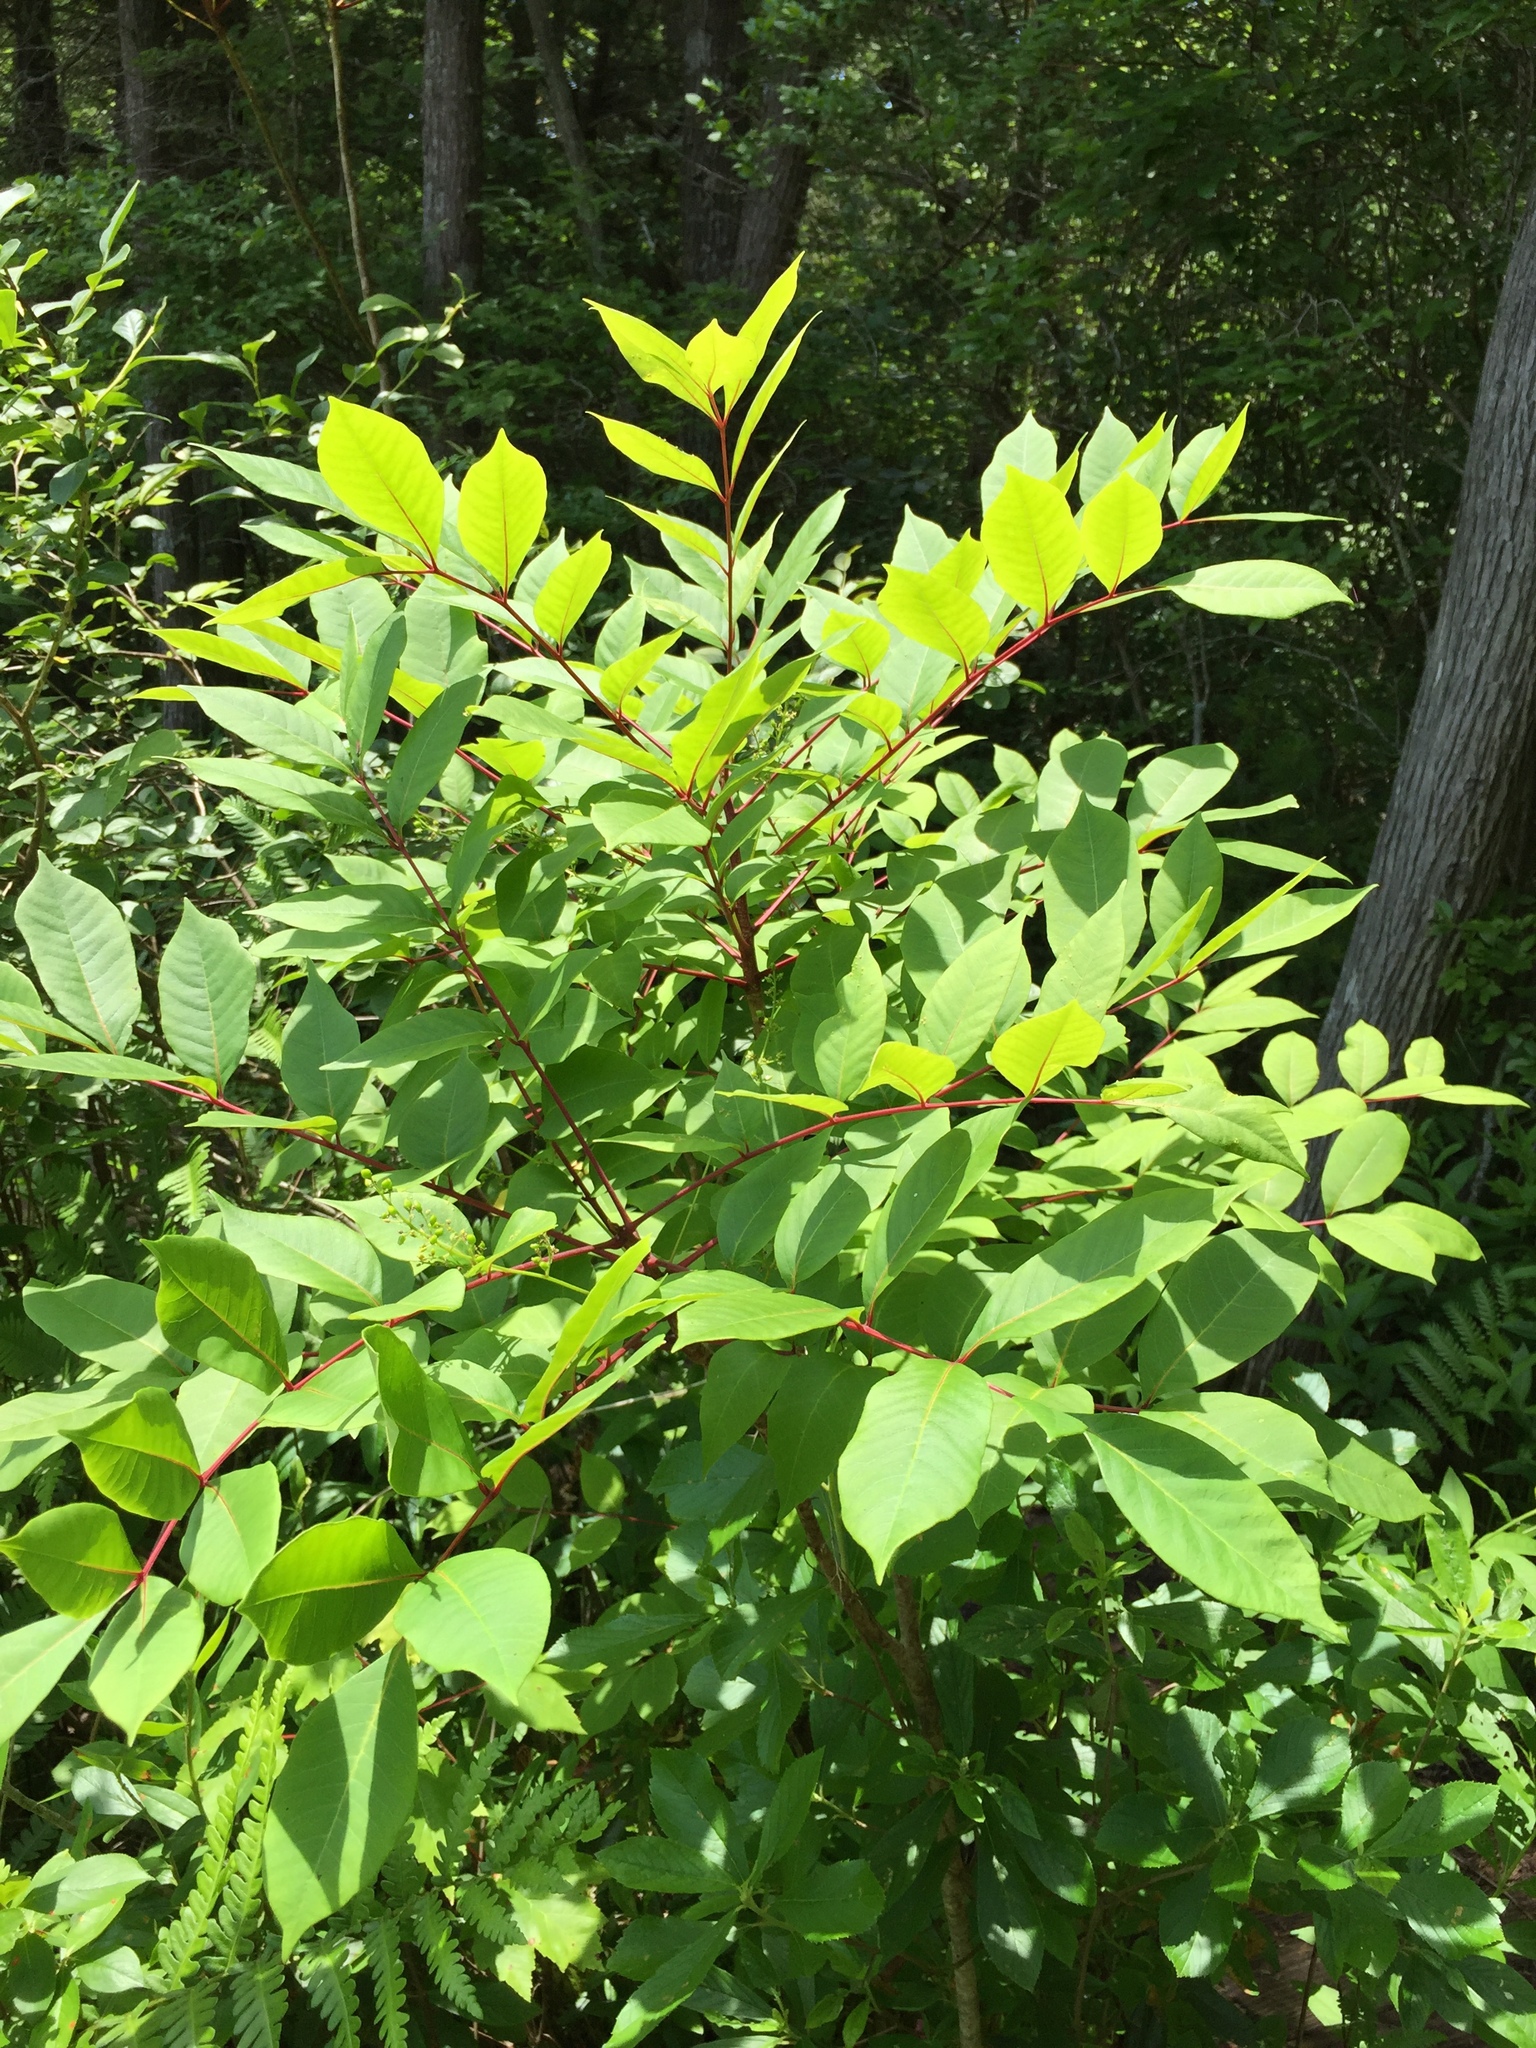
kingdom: Plantae
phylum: Tracheophyta
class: Magnoliopsida
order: Sapindales
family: Anacardiaceae
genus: Toxicodendron
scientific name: Toxicodendron vernix
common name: Poison sumac
